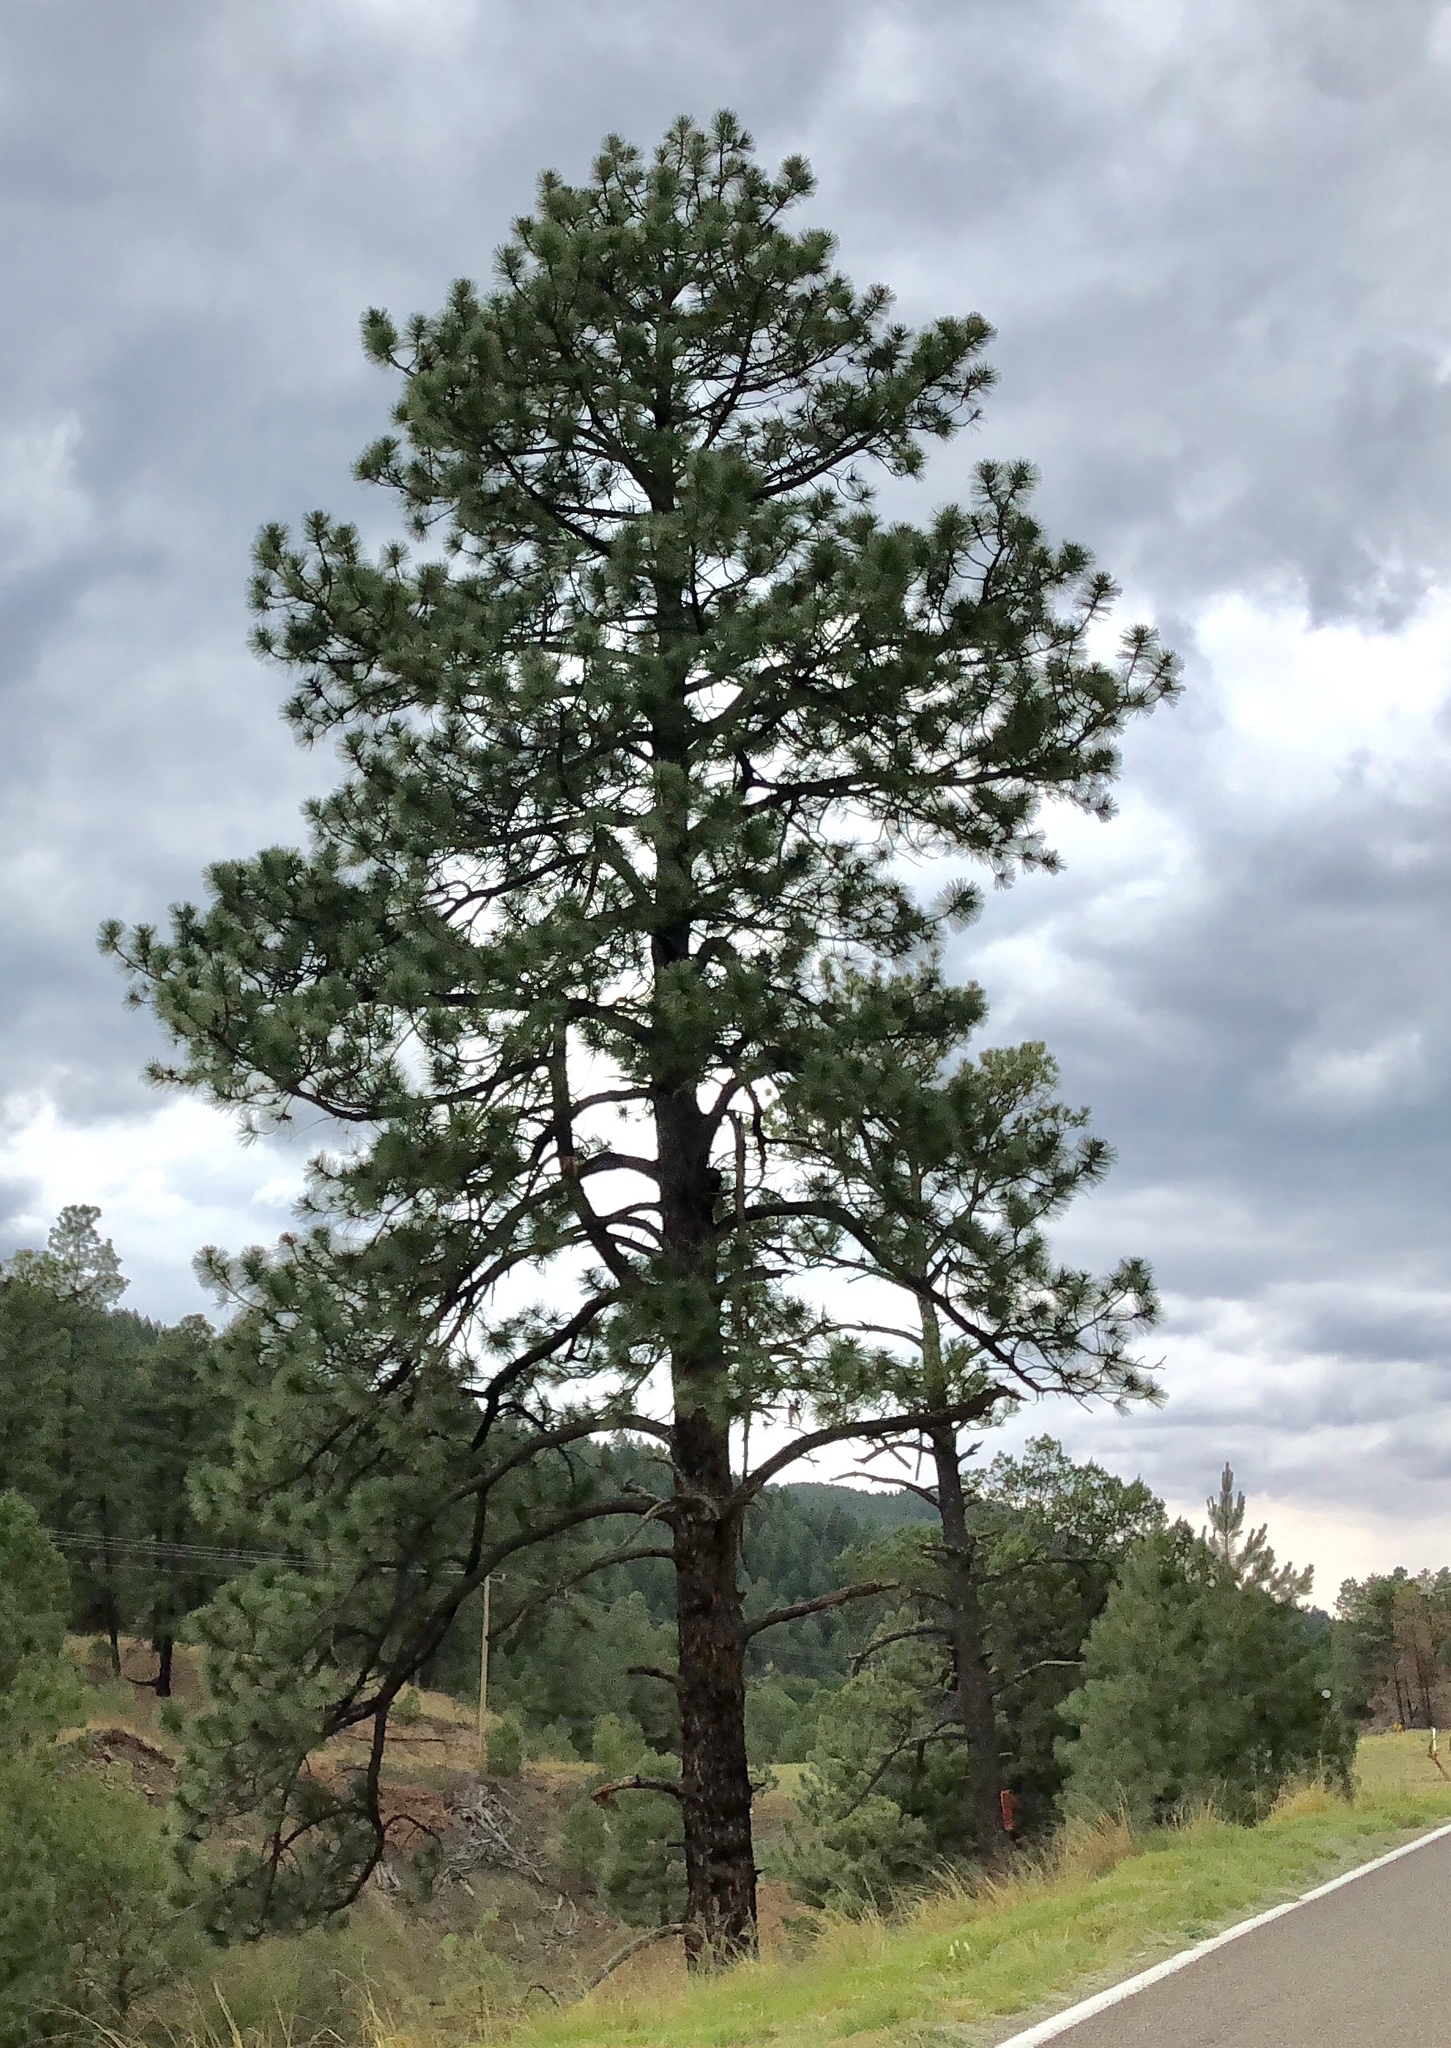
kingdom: Plantae
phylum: Tracheophyta
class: Pinopsida
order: Pinales
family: Pinaceae
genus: Pinus
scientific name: Pinus ponderosa
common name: Western yellow-pine
